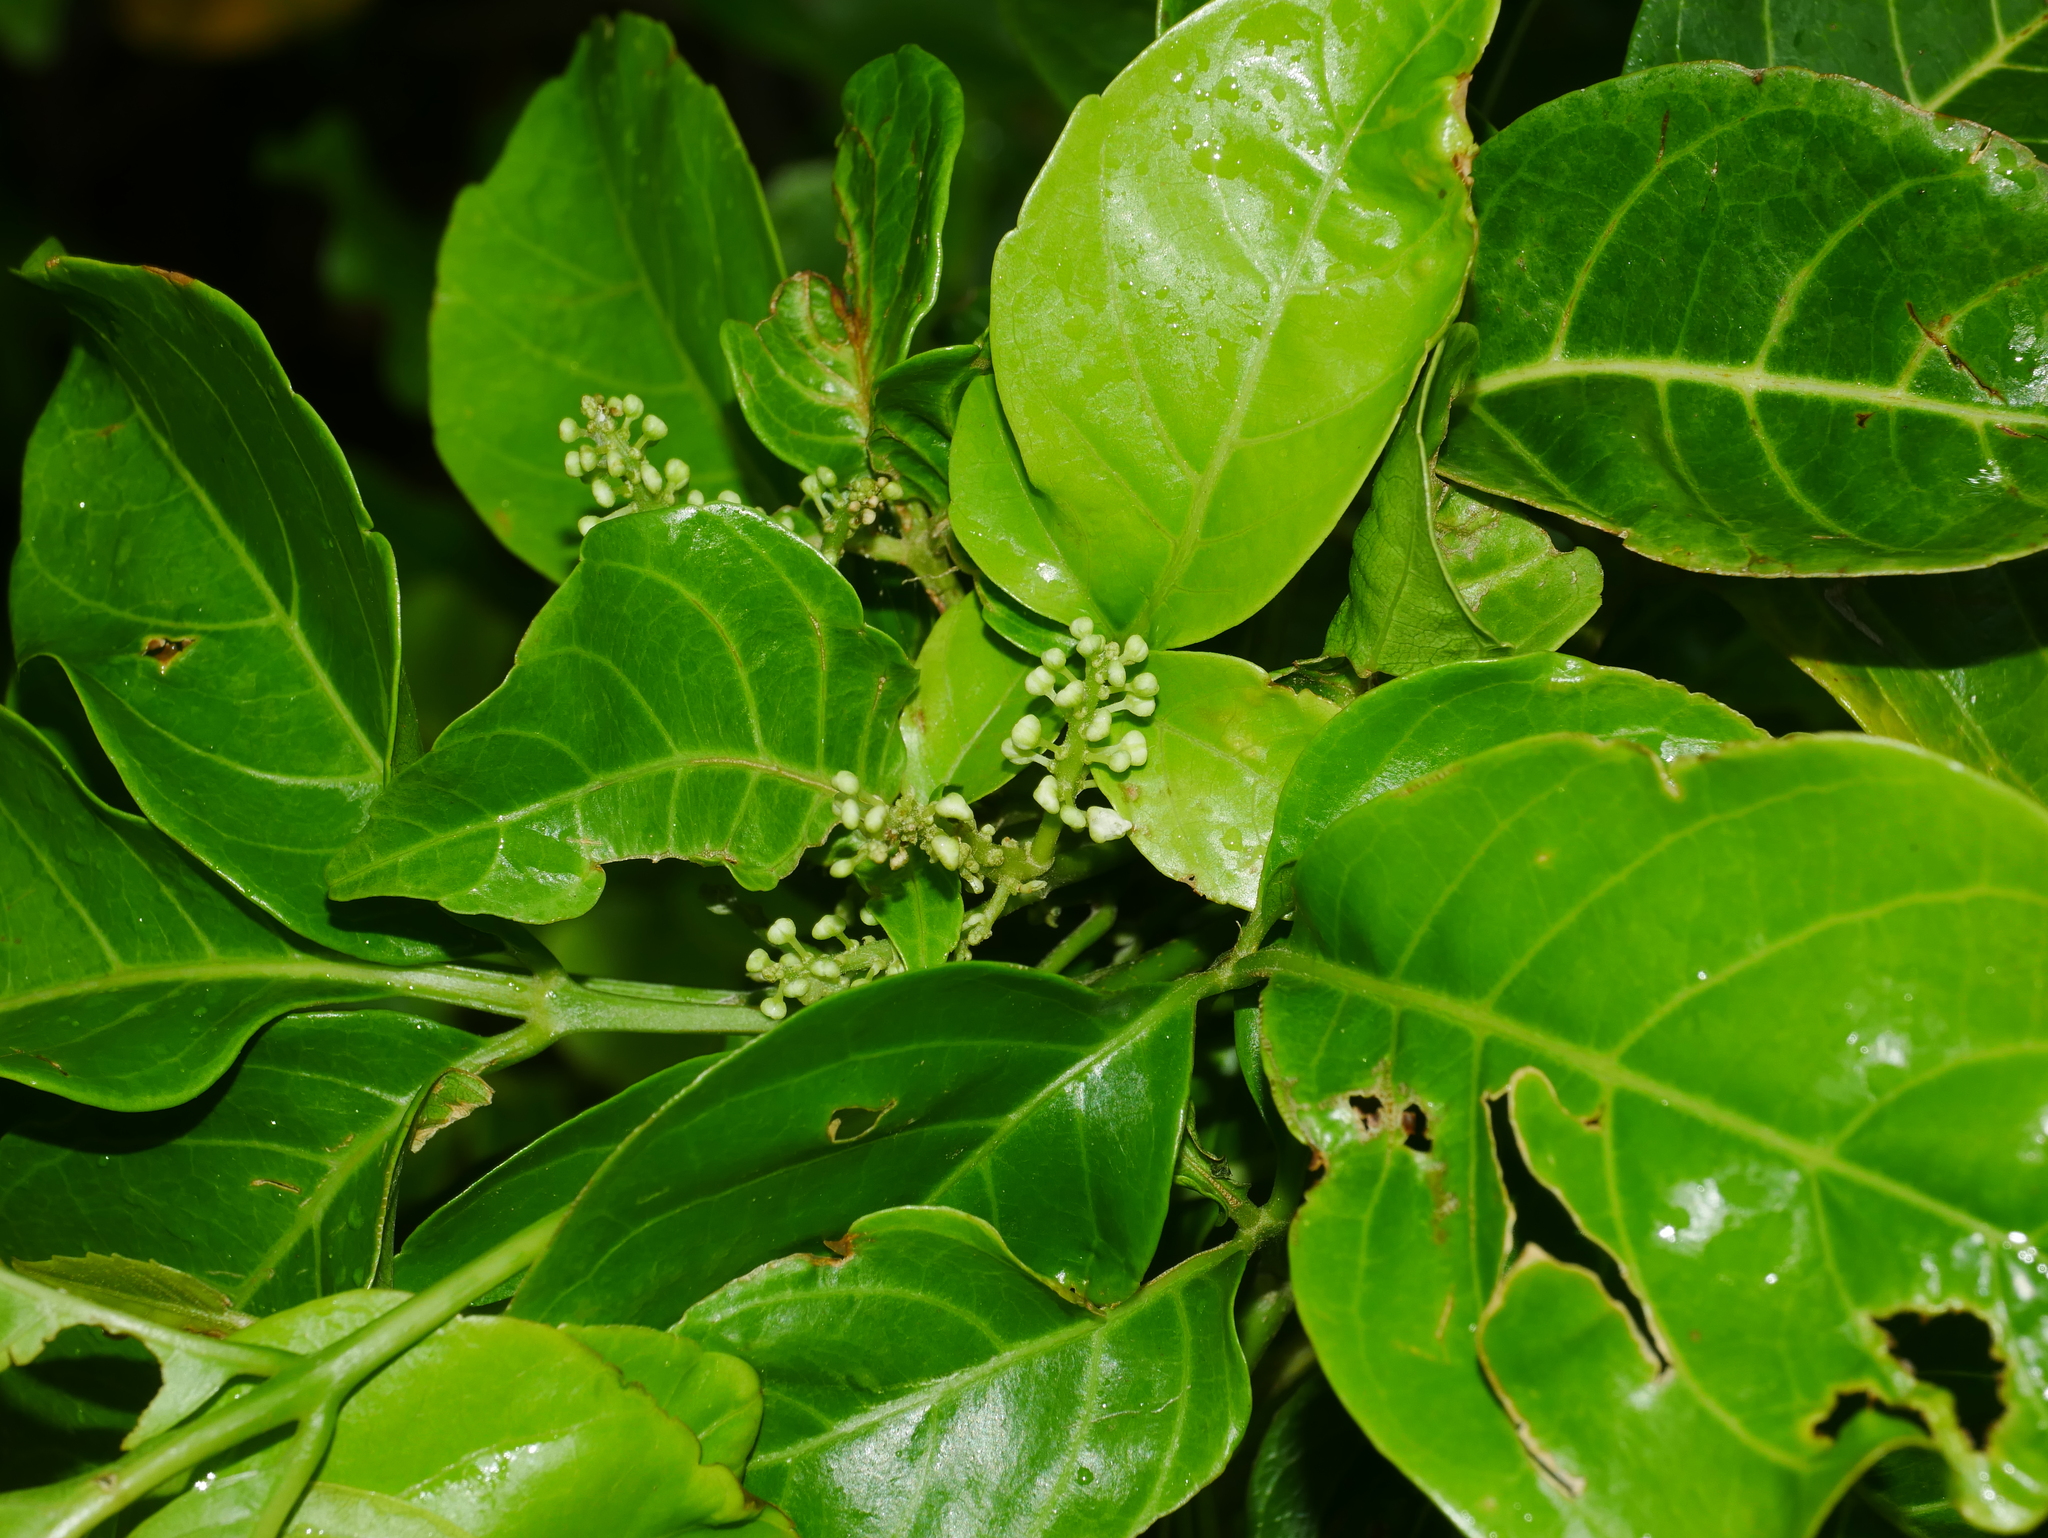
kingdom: Plantae
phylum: Tracheophyta
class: Magnoliopsida
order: Sapindales
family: Sapindaceae
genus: Allophylus
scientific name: Allophylus timorensis
